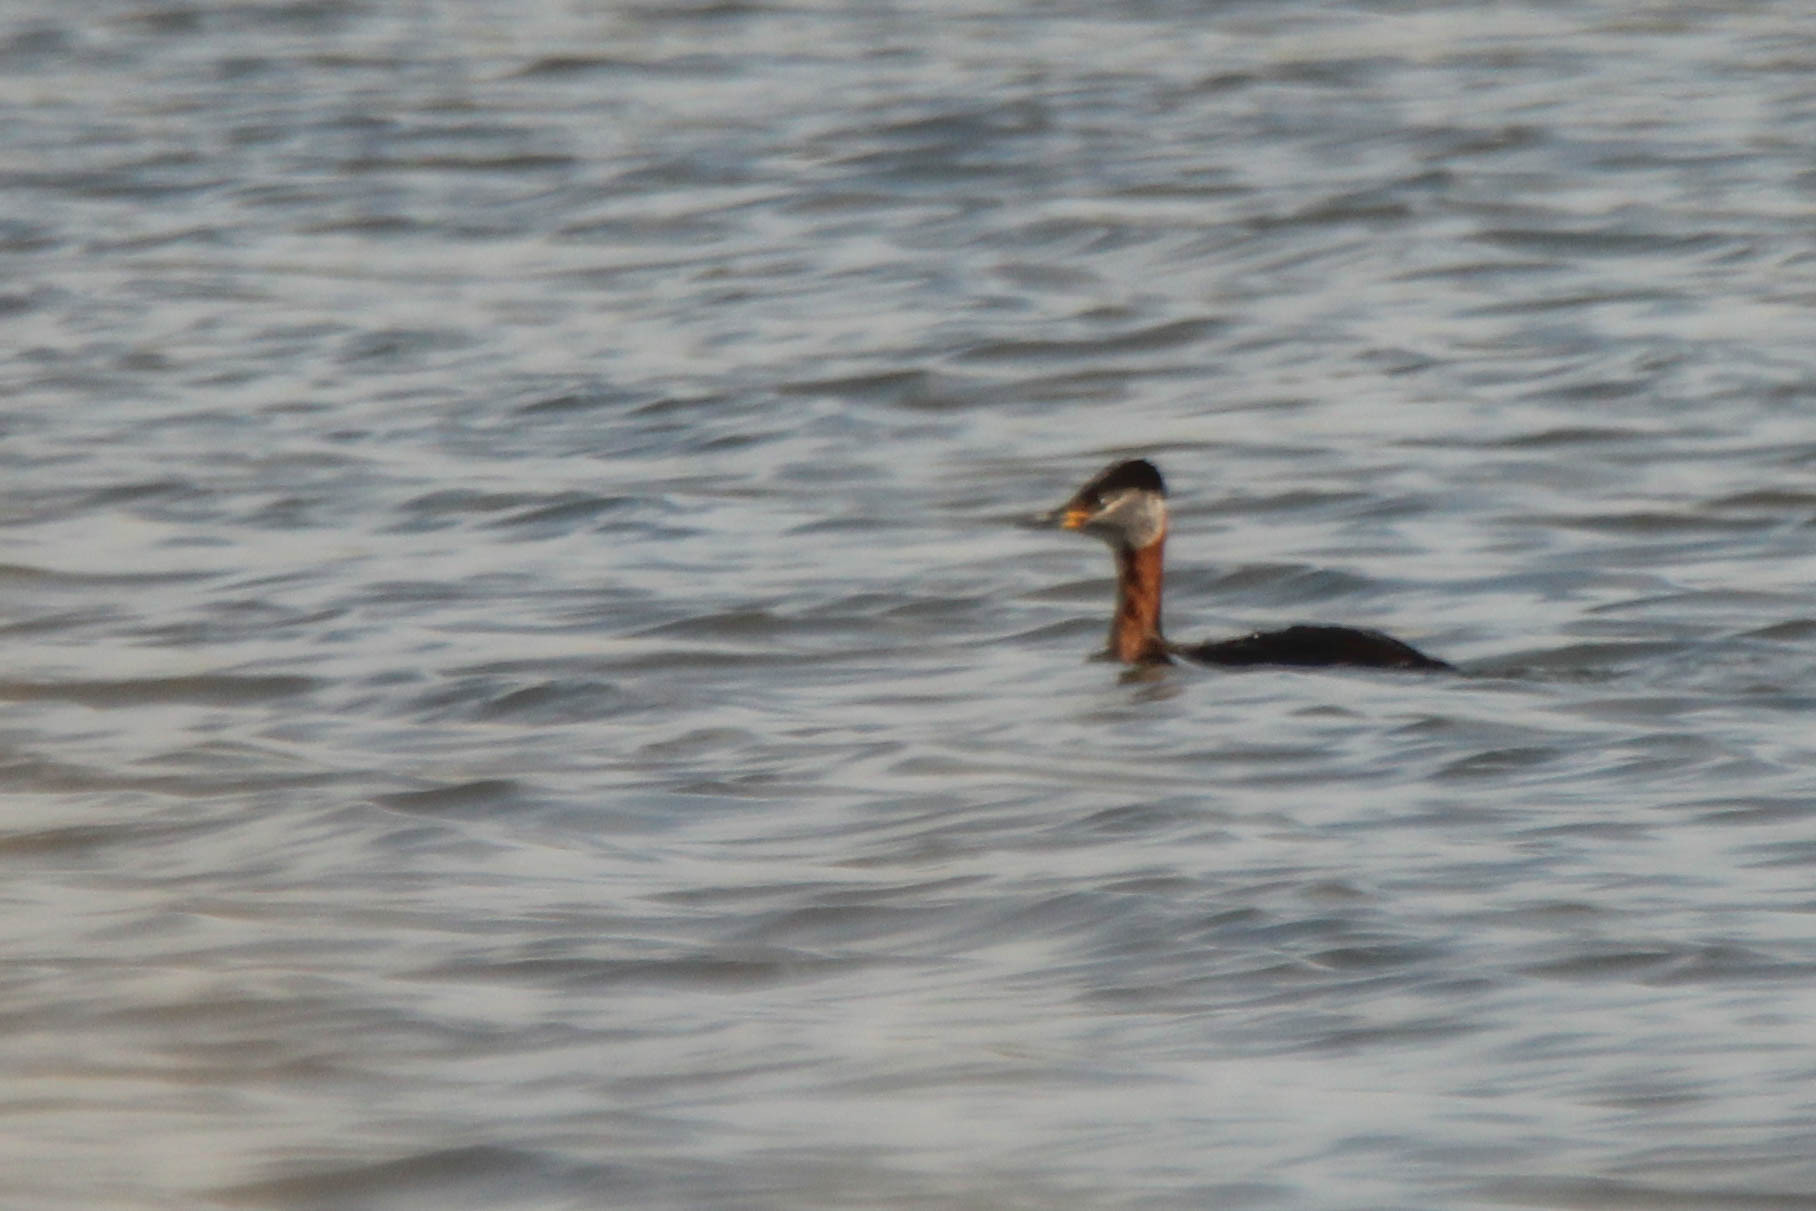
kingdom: Animalia
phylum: Chordata
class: Aves
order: Podicipediformes
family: Podicipedidae
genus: Podiceps
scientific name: Podiceps grisegena
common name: Red-necked grebe
